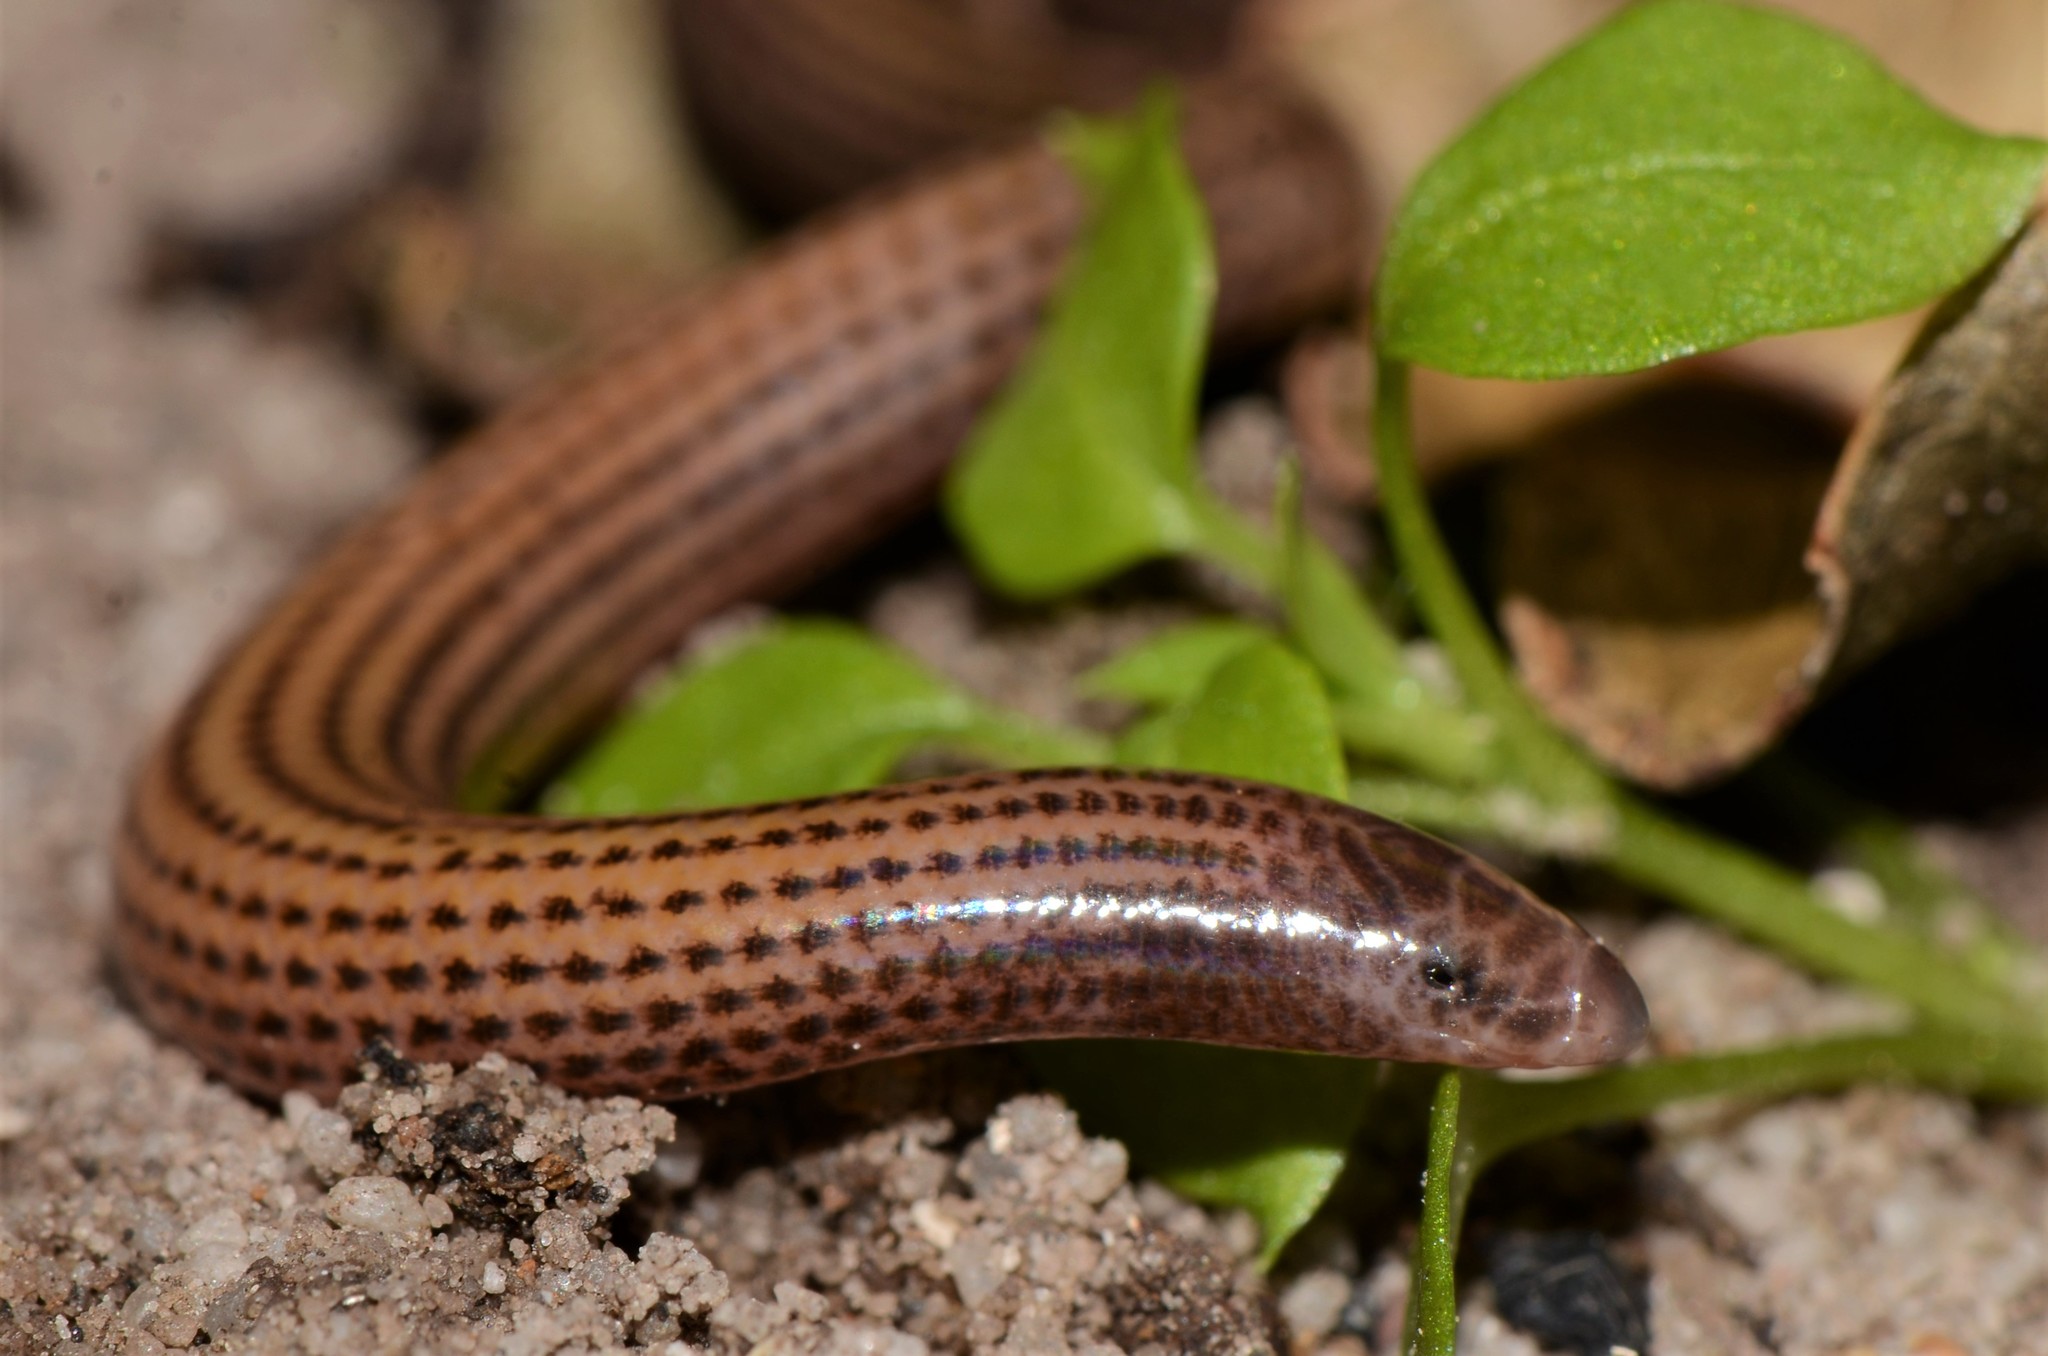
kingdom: Animalia
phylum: Chordata
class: Squamata
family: Scincidae
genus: Scolecoseps
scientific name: Scolecoseps boulengeri
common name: Boulenger's limbless skink
